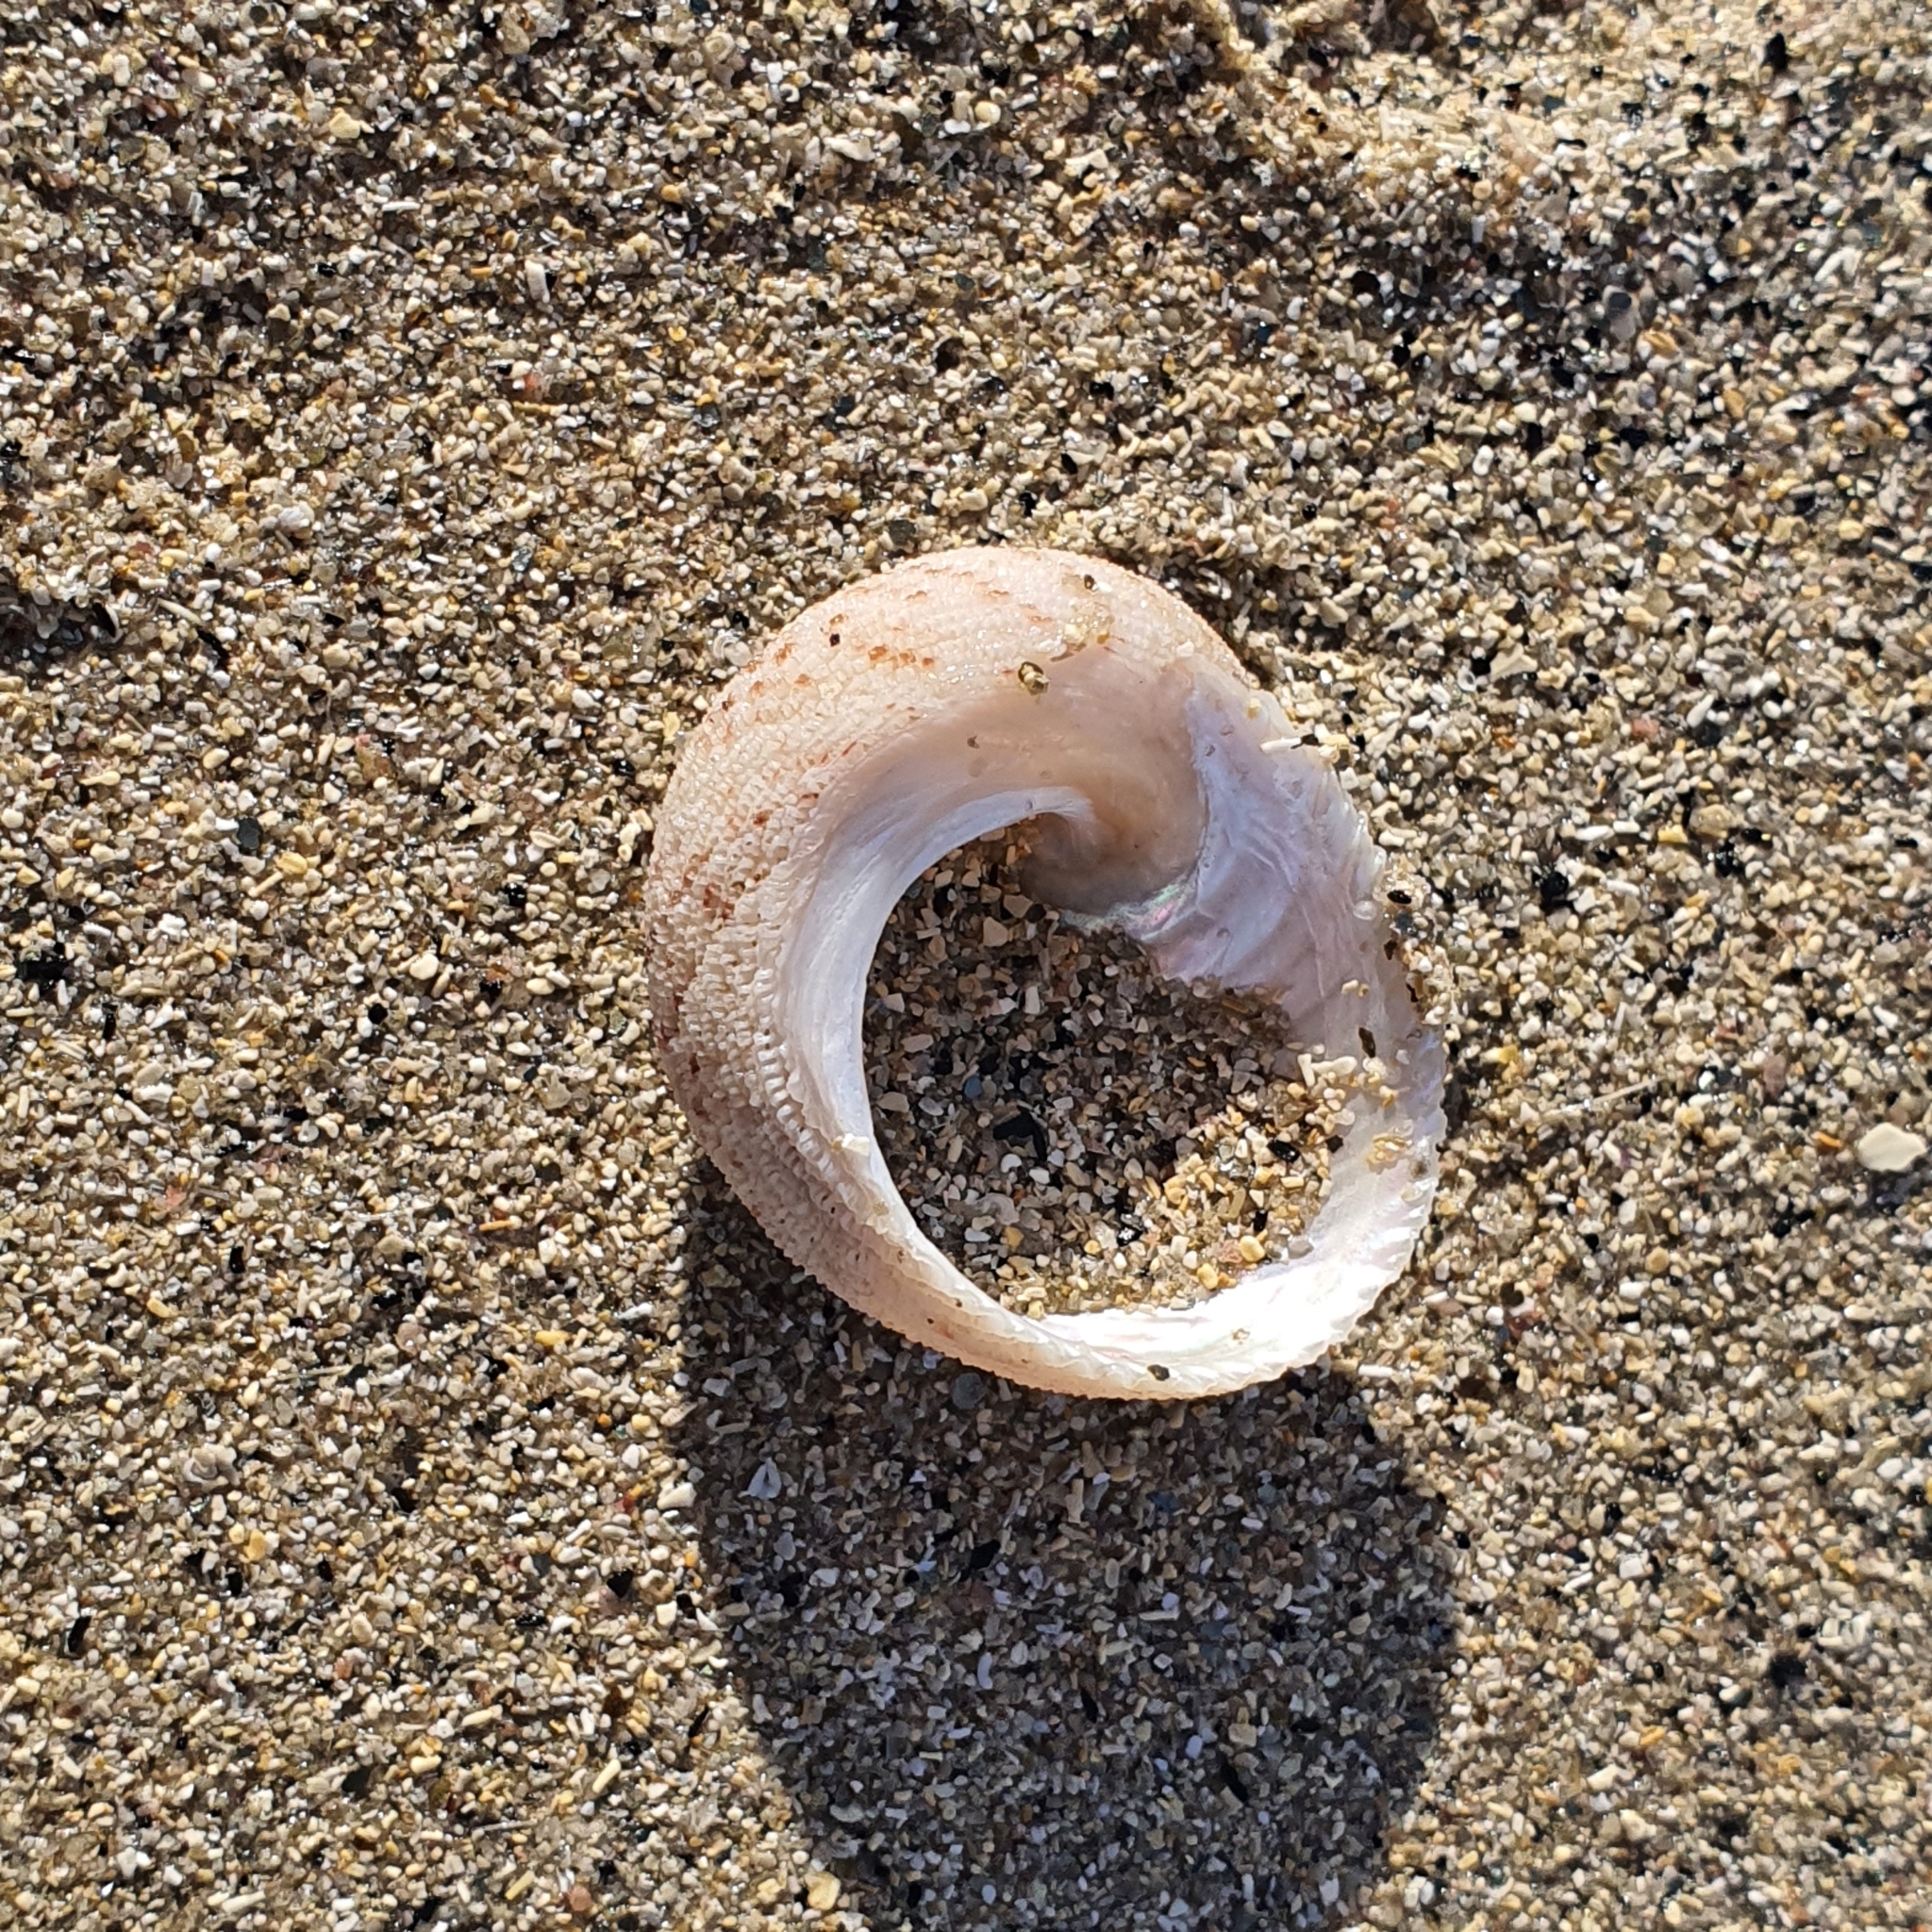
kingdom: Animalia
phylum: Mollusca
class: Gastropoda
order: Seguenziida
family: Chilodontaidae
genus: Granata
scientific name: Granata imbricata
